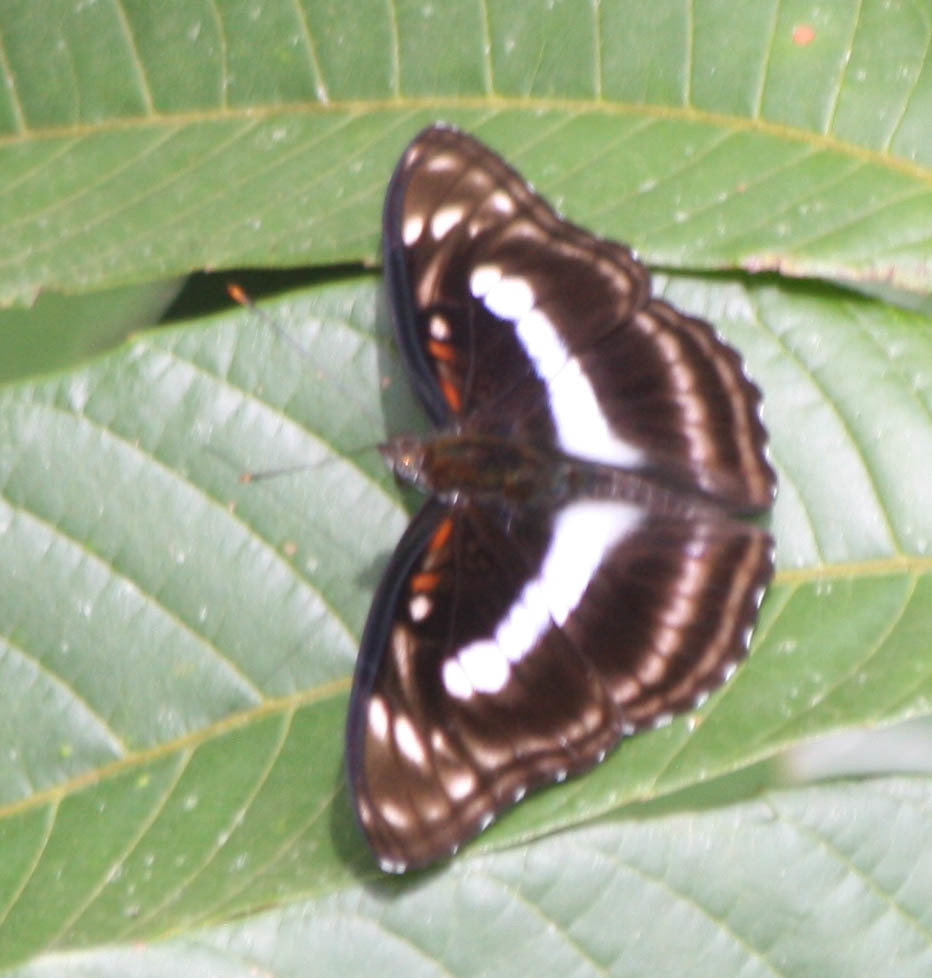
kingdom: Animalia
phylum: Arthropoda
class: Insecta
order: Lepidoptera
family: Nymphalidae
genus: Parathyma
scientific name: Parathyma selenophora
